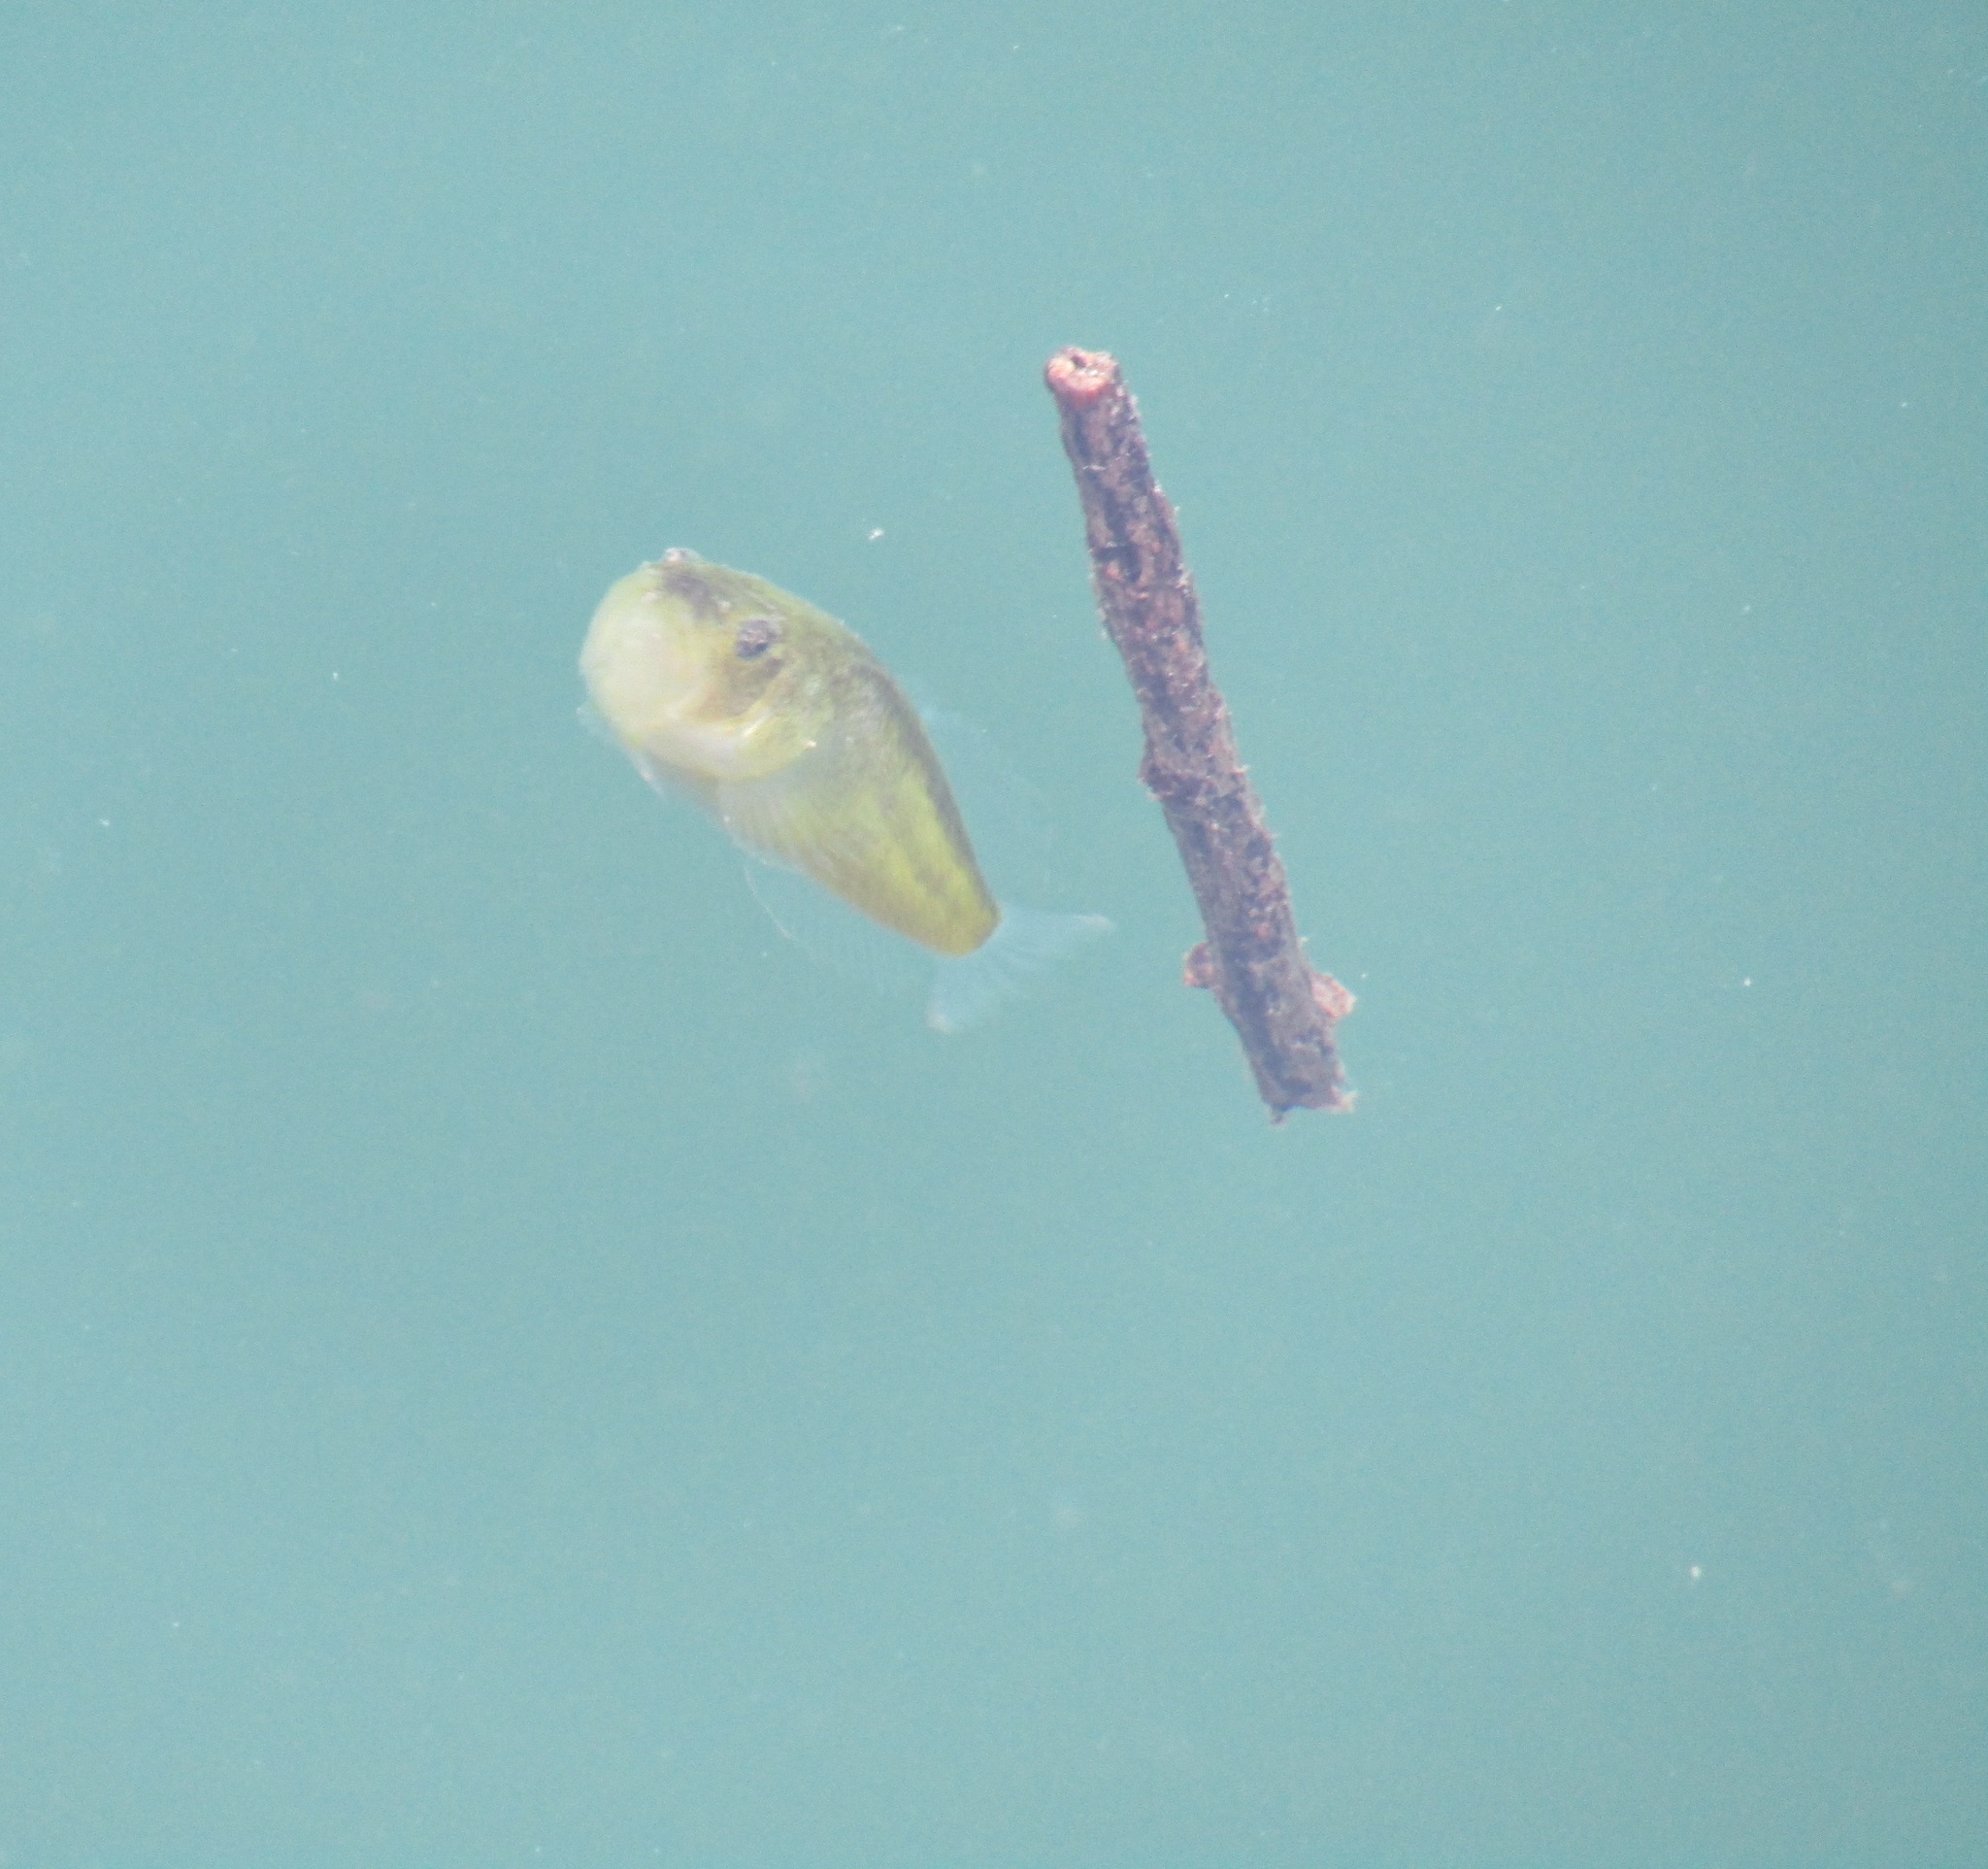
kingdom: Animalia
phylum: Chordata
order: Perciformes
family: Uranoscopidae
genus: Genyagnus
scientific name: Genyagnus monopterygius
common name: Spotted stargazer
